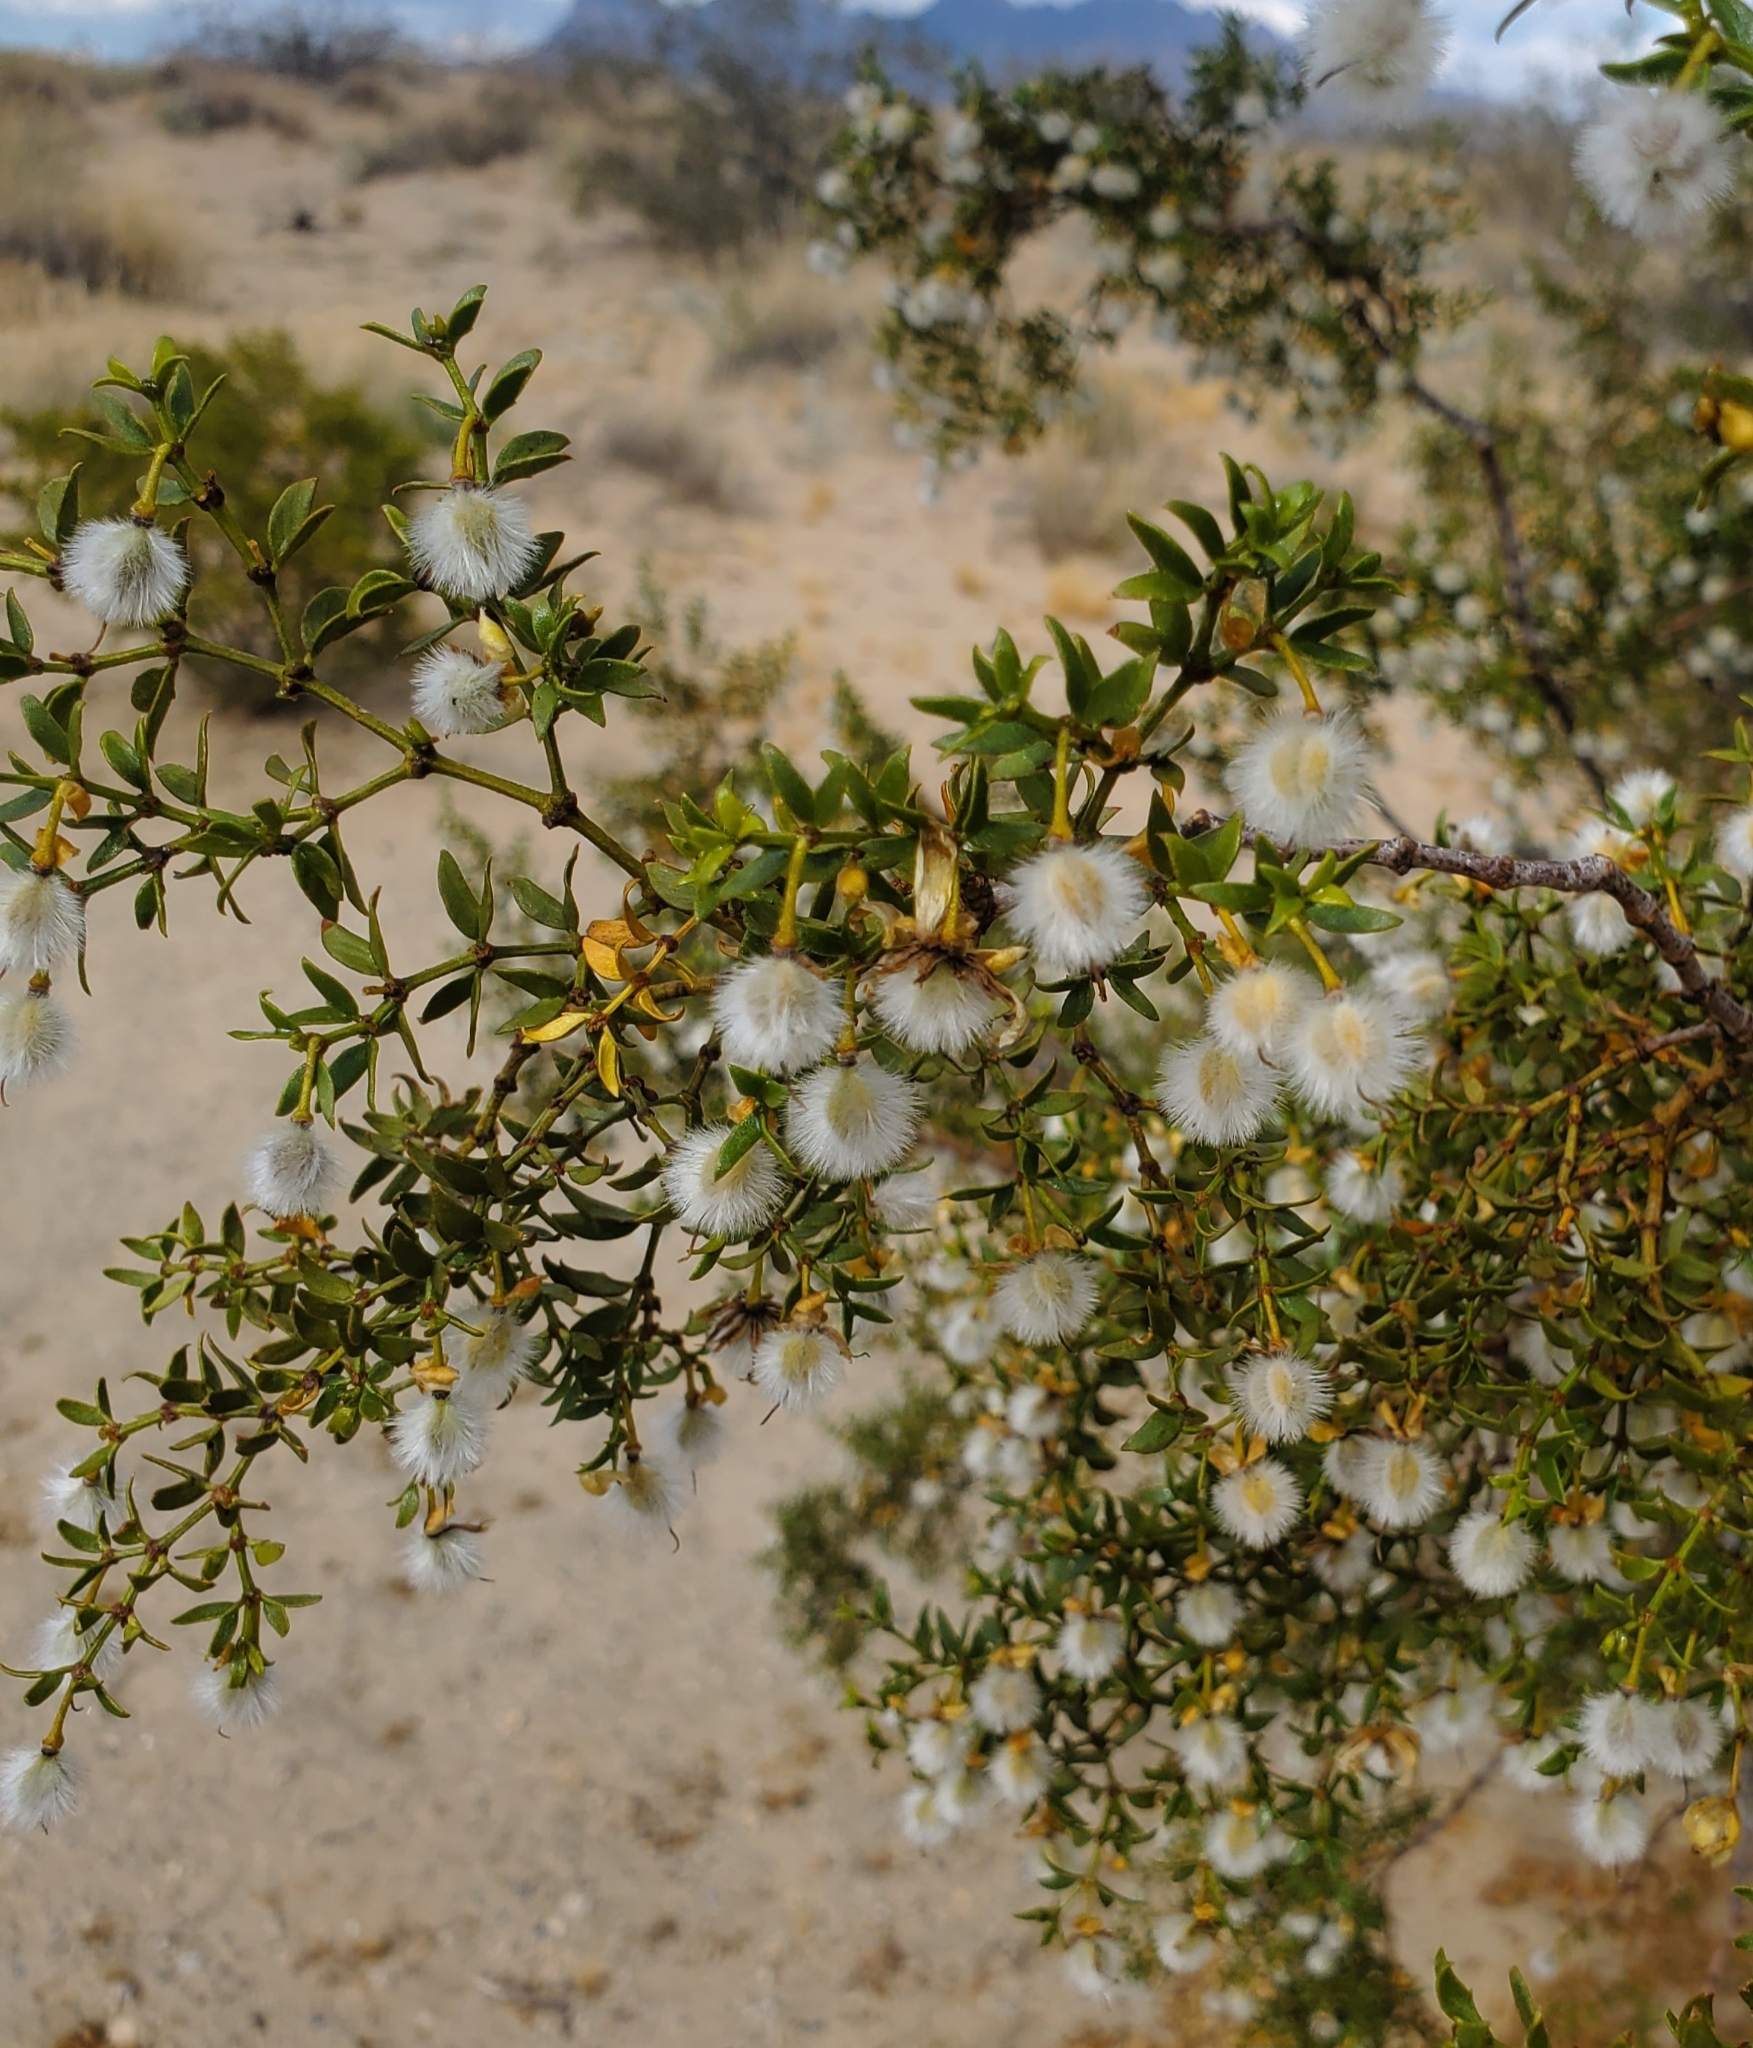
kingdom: Plantae
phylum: Tracheophyta
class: Magnoliopsida
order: Zygophyllales
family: Zygophyllaceae
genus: Larrea
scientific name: Larrea tridentata
